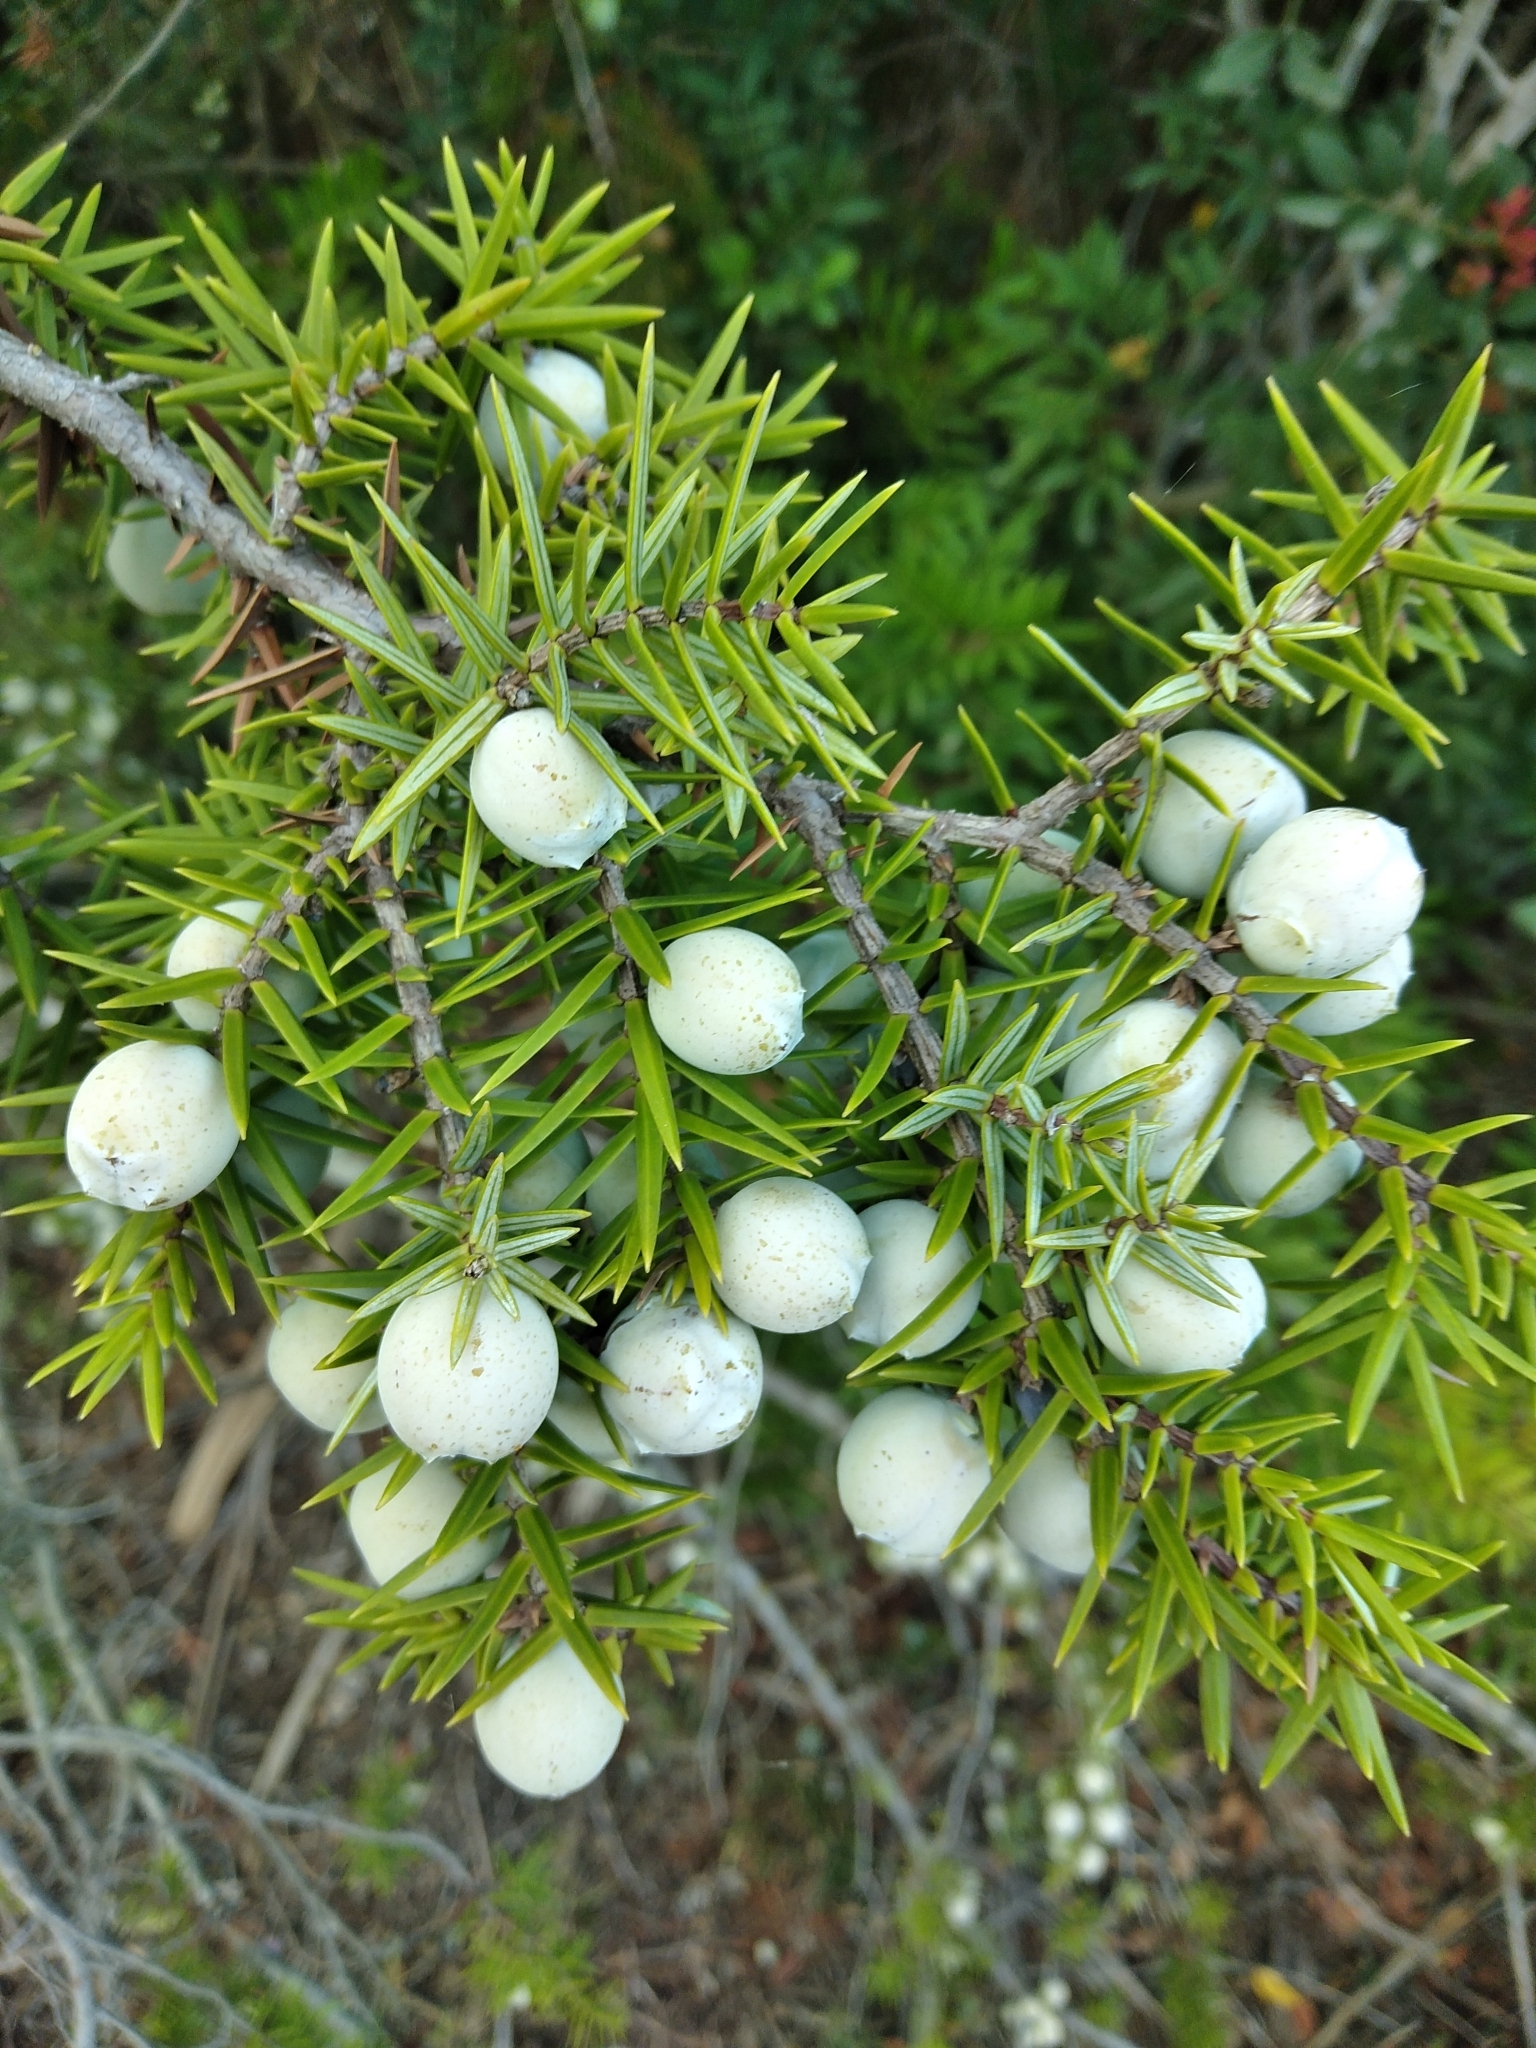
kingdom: Plantae
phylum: Tracheophyta
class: Pinopsida
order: Pinales
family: Cupressaceae
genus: Juniperus
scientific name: Juniperus oxycedrus
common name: Prickly juniper
